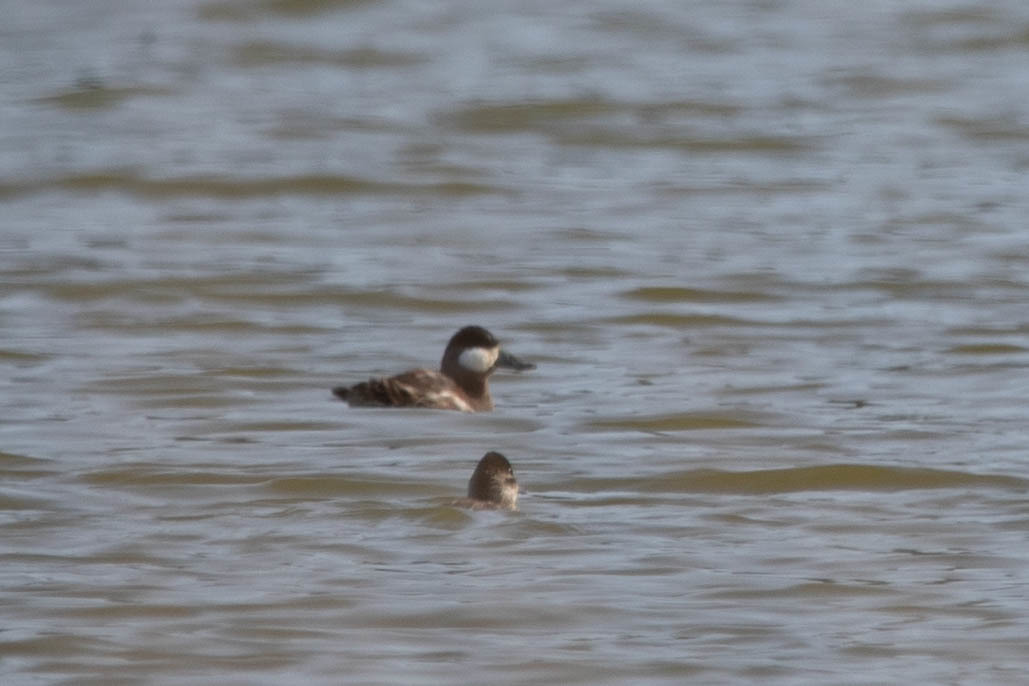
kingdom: Animalia
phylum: Chordata
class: Aves
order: Anseriformes
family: Anatidae
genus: Oxyura
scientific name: Oxyura jamaicensis
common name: Ruddy duck
